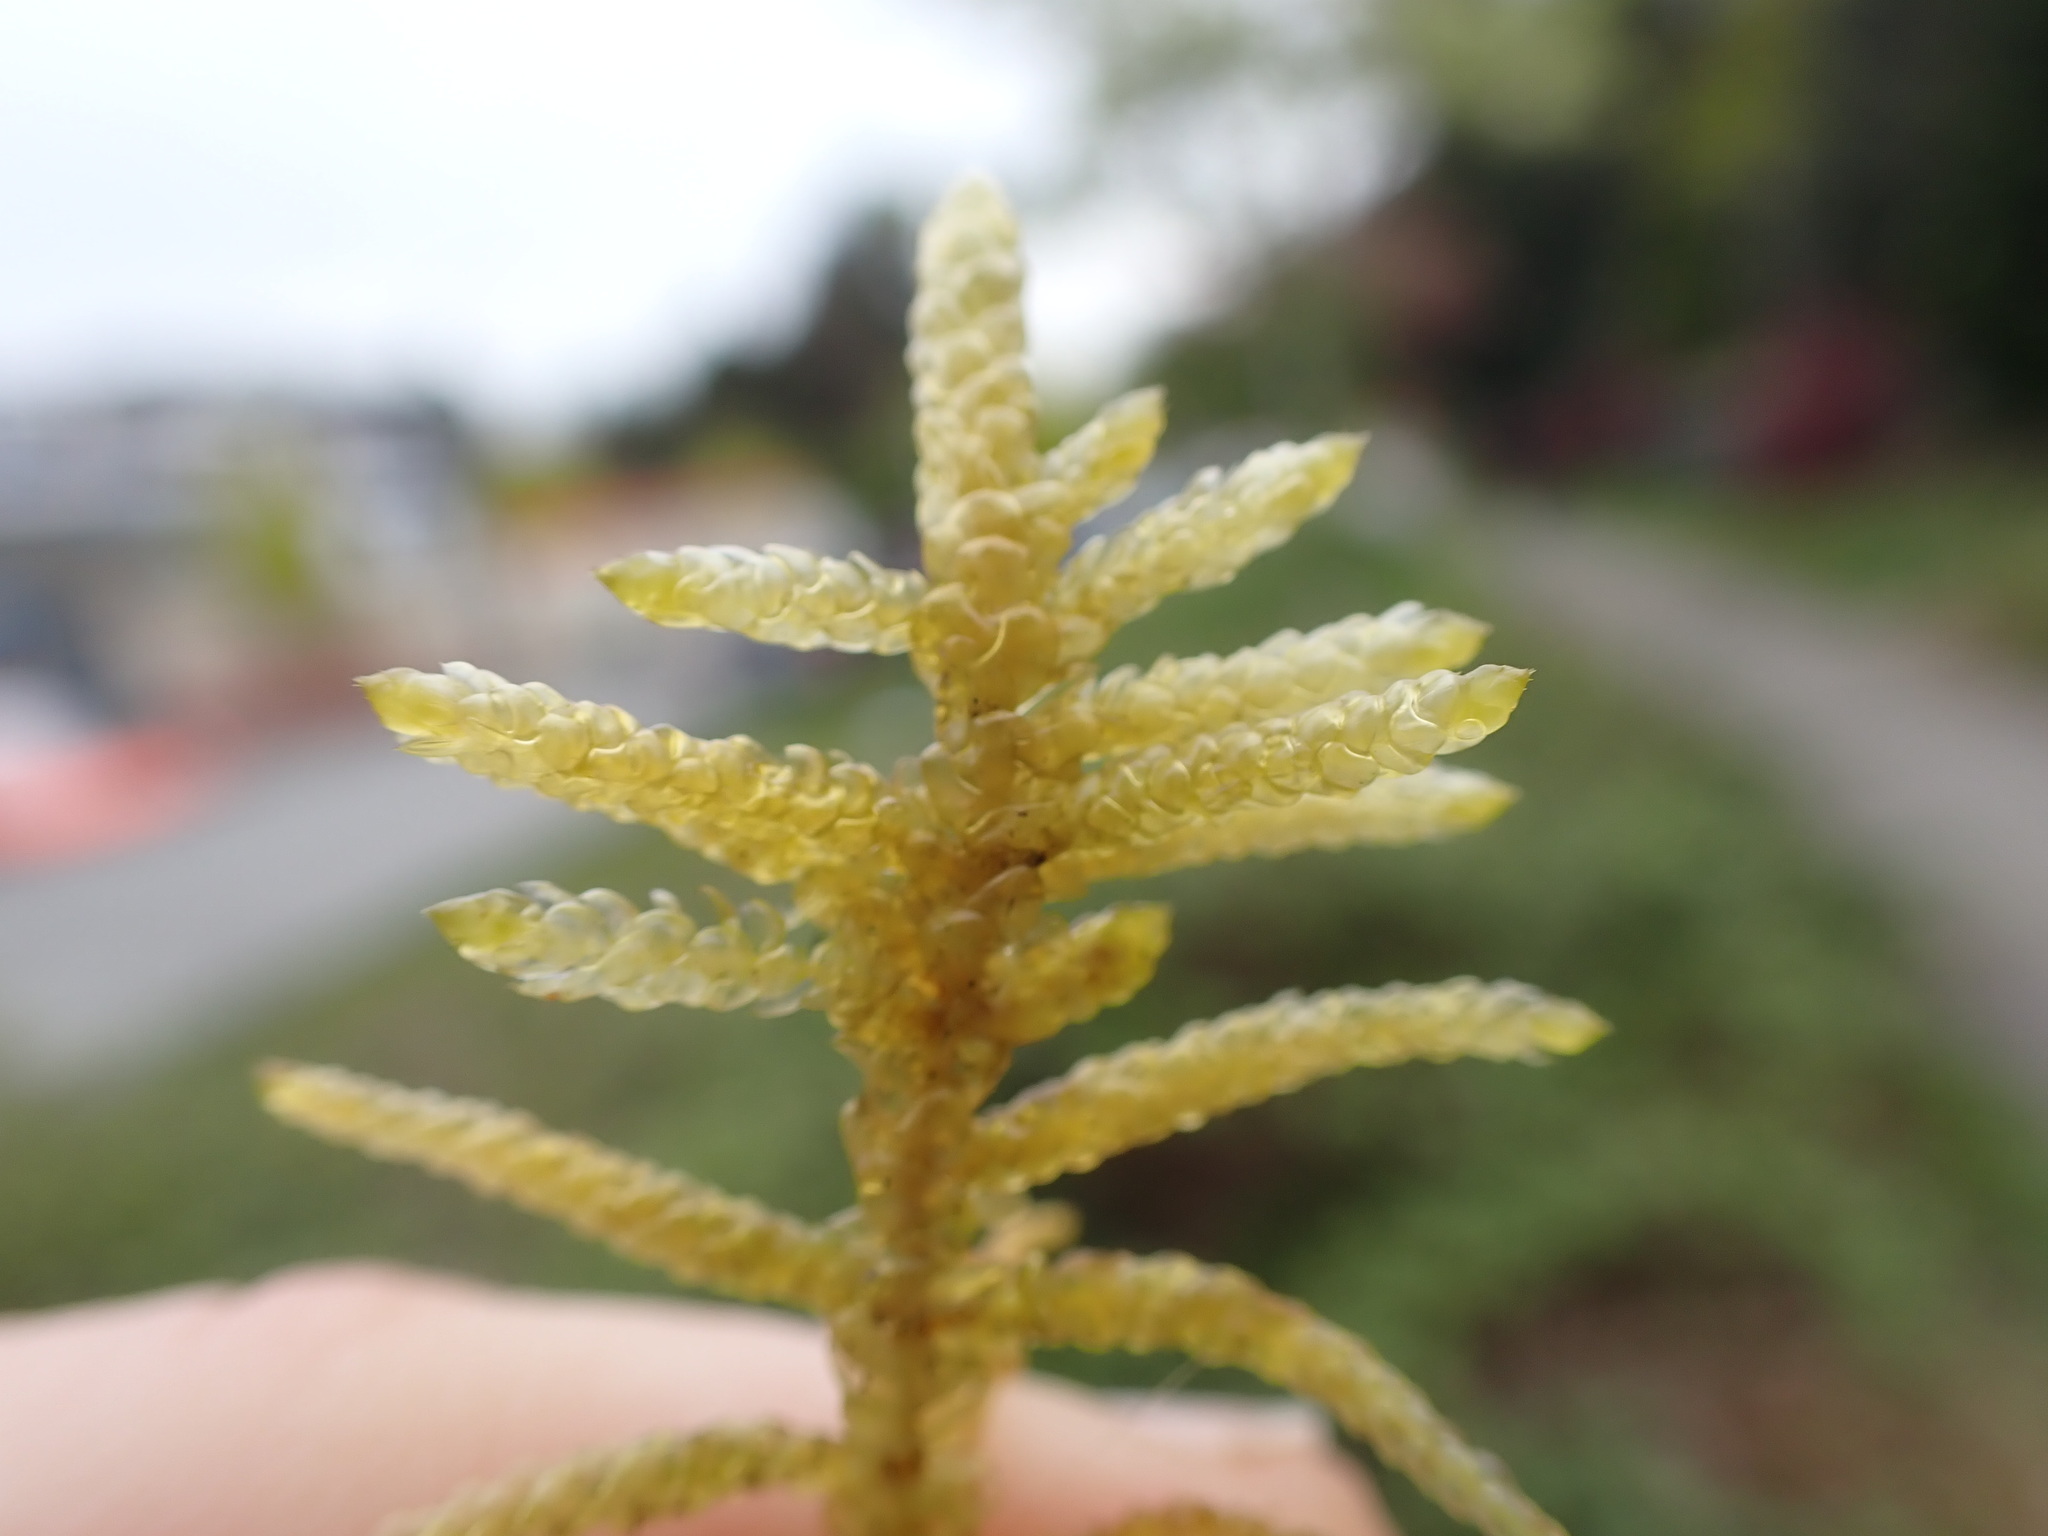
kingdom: Plantae
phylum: Bryophyta
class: Bryopsida
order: Hypnales
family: Brachytheciaceae
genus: Pseudoscleropodium
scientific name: Pseudoscleropodium purum
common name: Neat feather-moss
